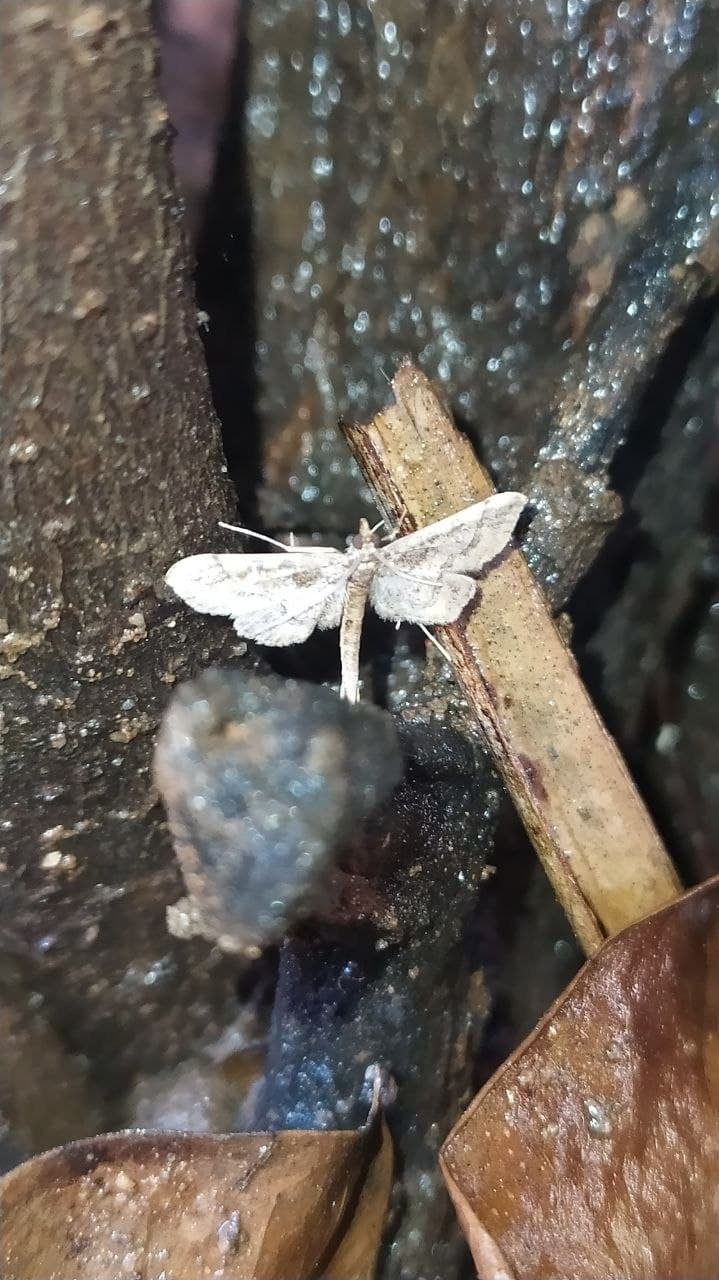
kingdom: Animalia
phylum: Arthropoda
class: Insecta
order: Lepidoptera
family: Crambidae
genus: Hydriris
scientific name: Hydriris ornatalis
